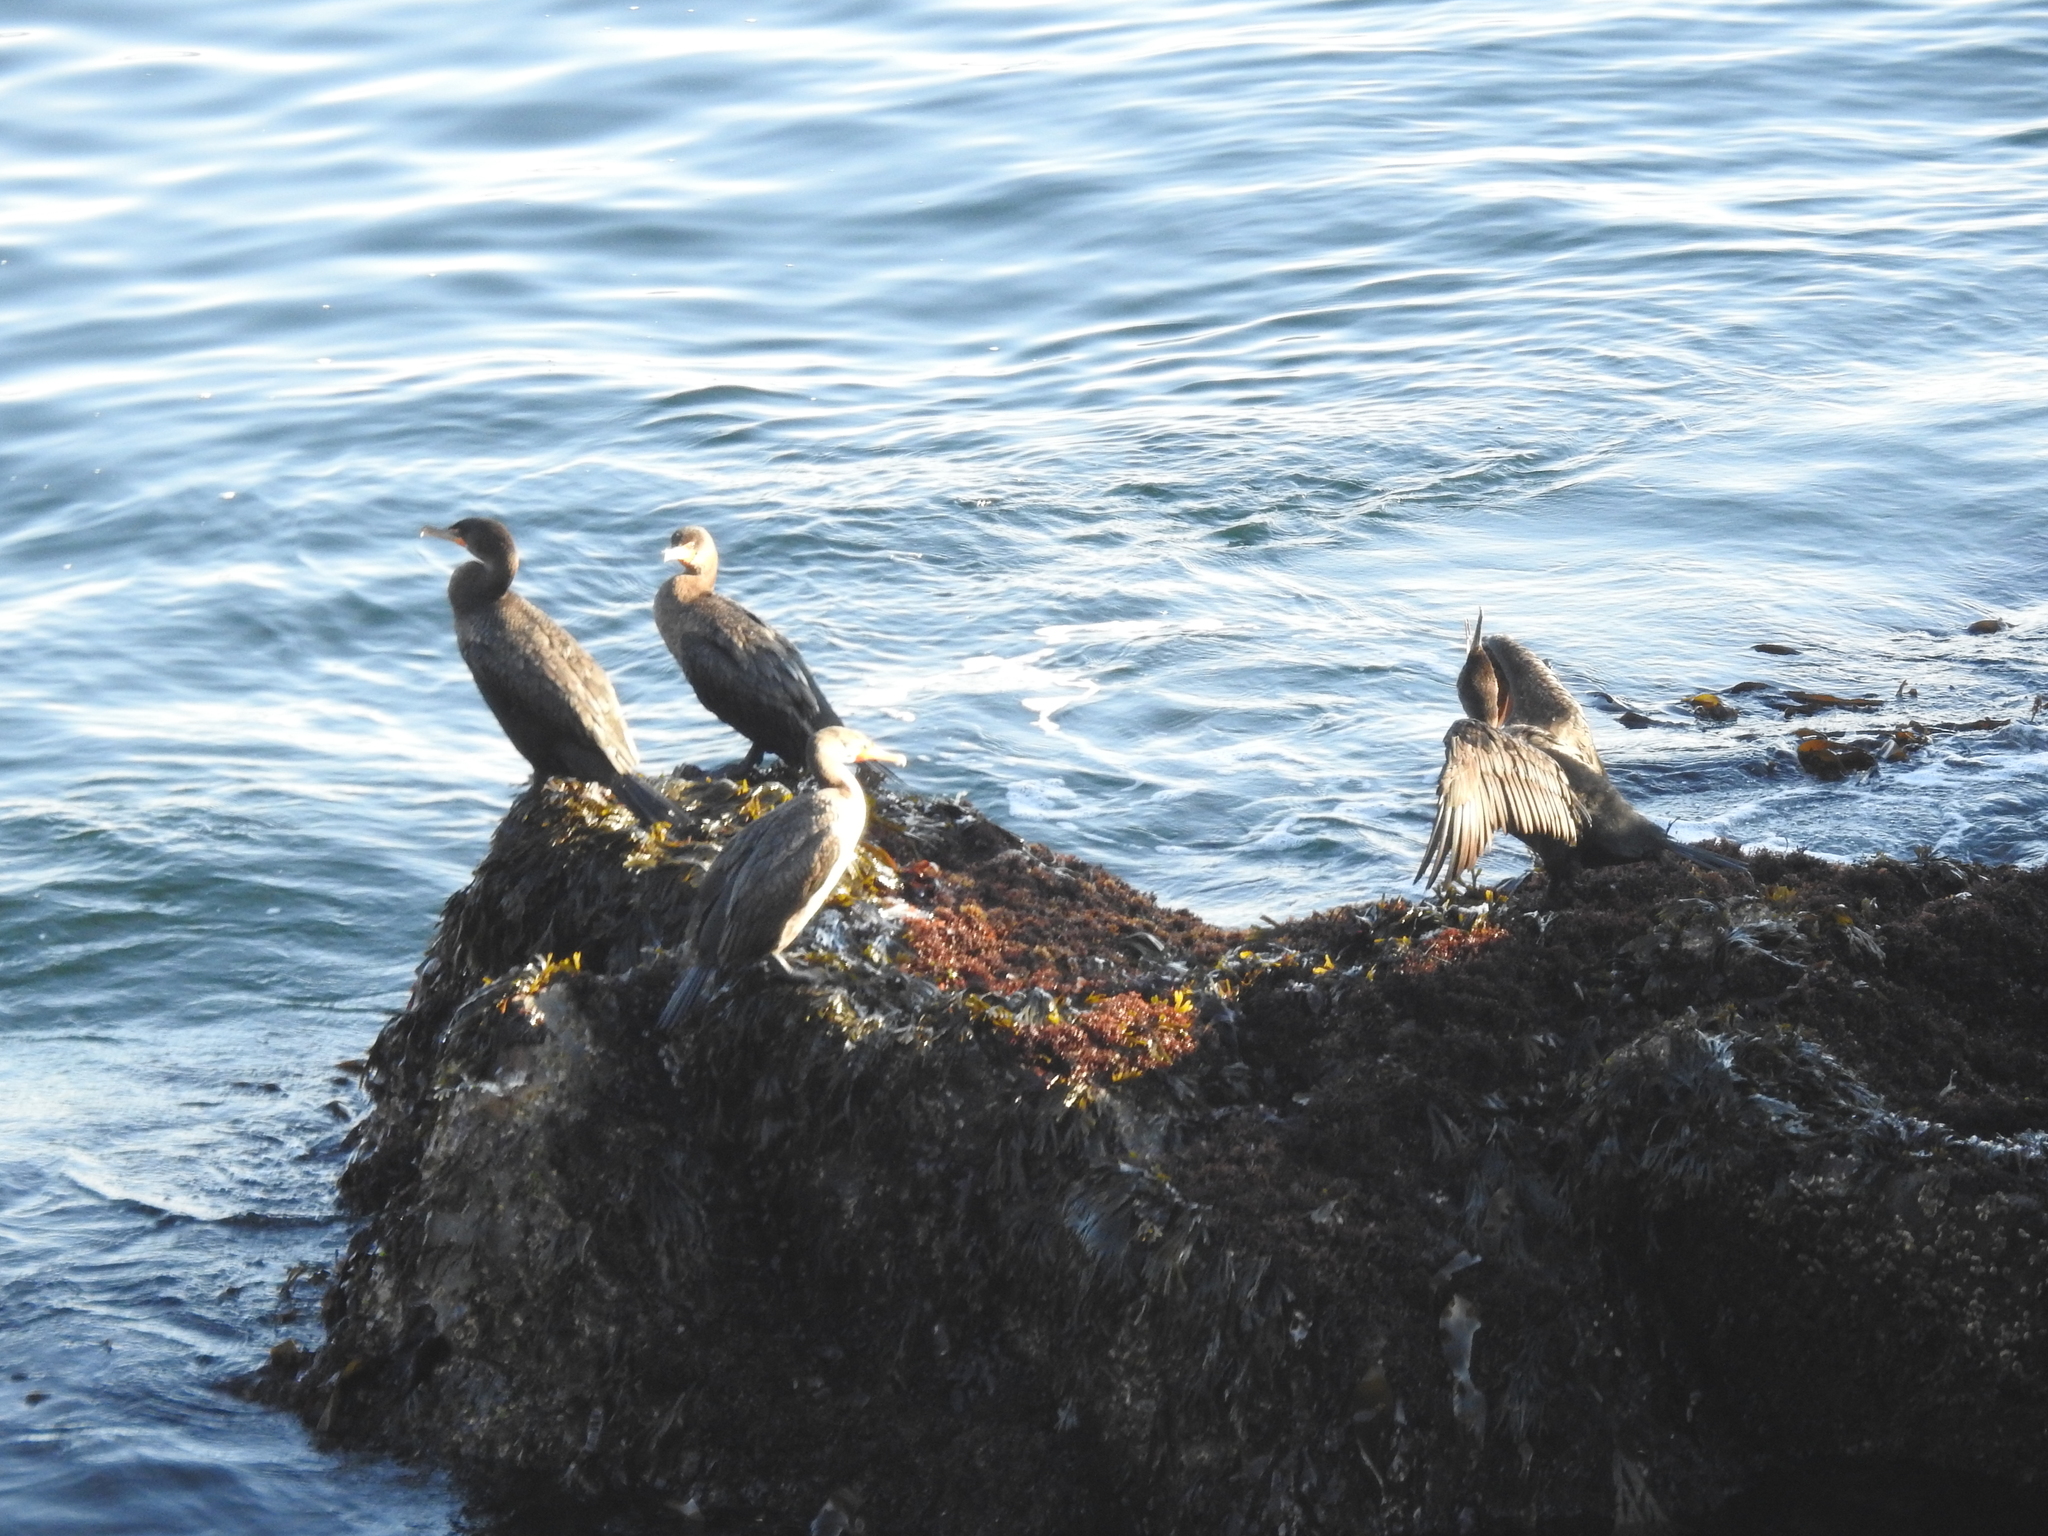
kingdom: Animalia
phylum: Chordata
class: Aves
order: Suliformes
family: Phalacrocoracidae
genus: Phalacrocorax
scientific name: Phalacrocorax auritus
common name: Double-crested cormorant
